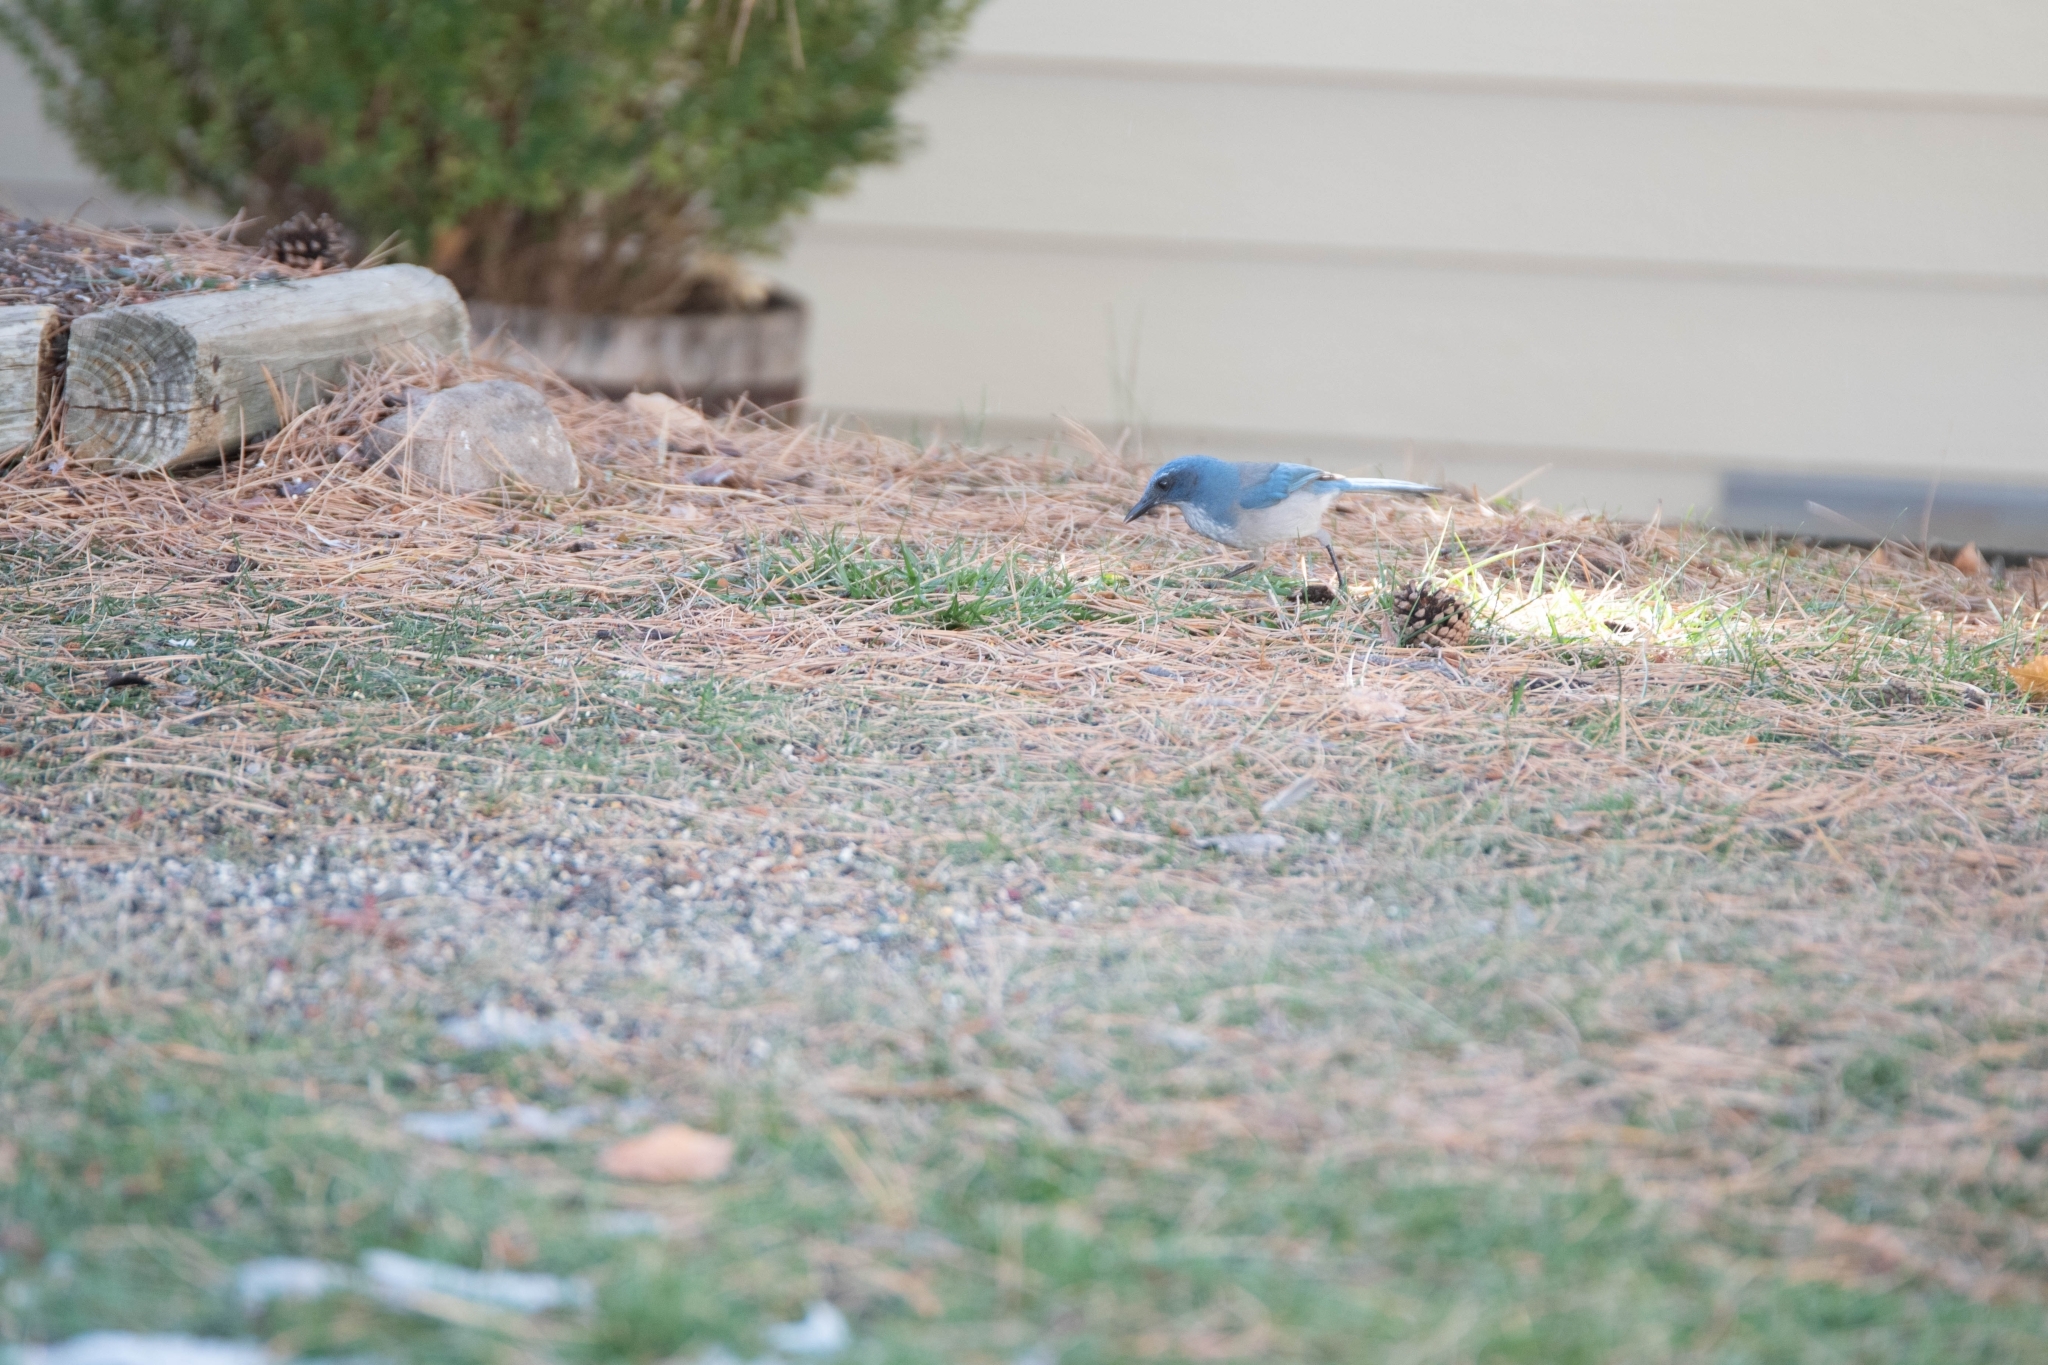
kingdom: Animalia
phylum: Chordata
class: Aves
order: Passeriformes
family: Corvidae
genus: Aphelocoma
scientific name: Aphelocoma woodhouseii
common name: Woodhouse's scrub-jay
